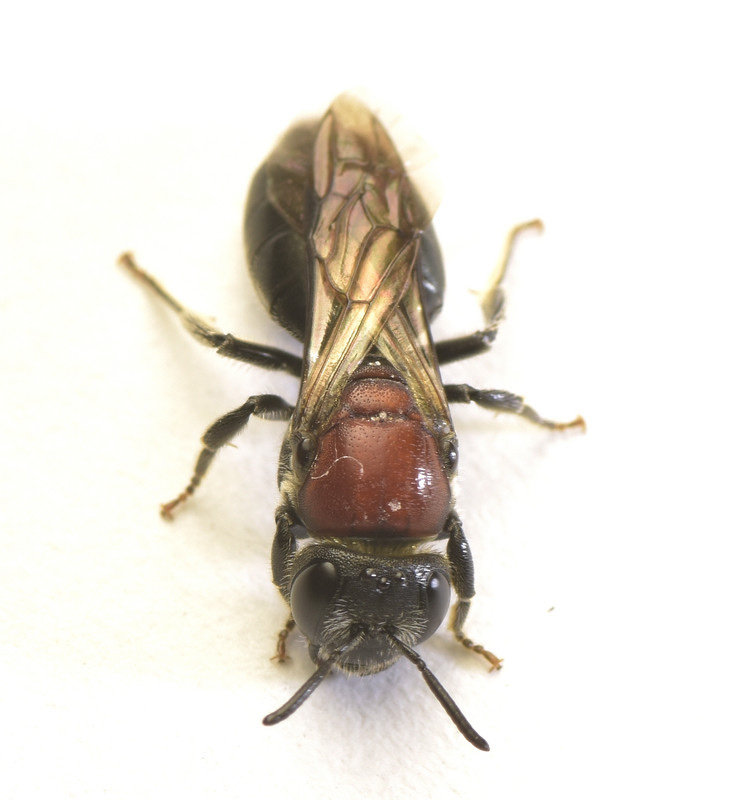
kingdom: Animalia
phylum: Arthropoda
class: Insecta
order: Hymenoptera
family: Colletidae
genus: Euryglossa
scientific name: Euryglossa ephippiata
